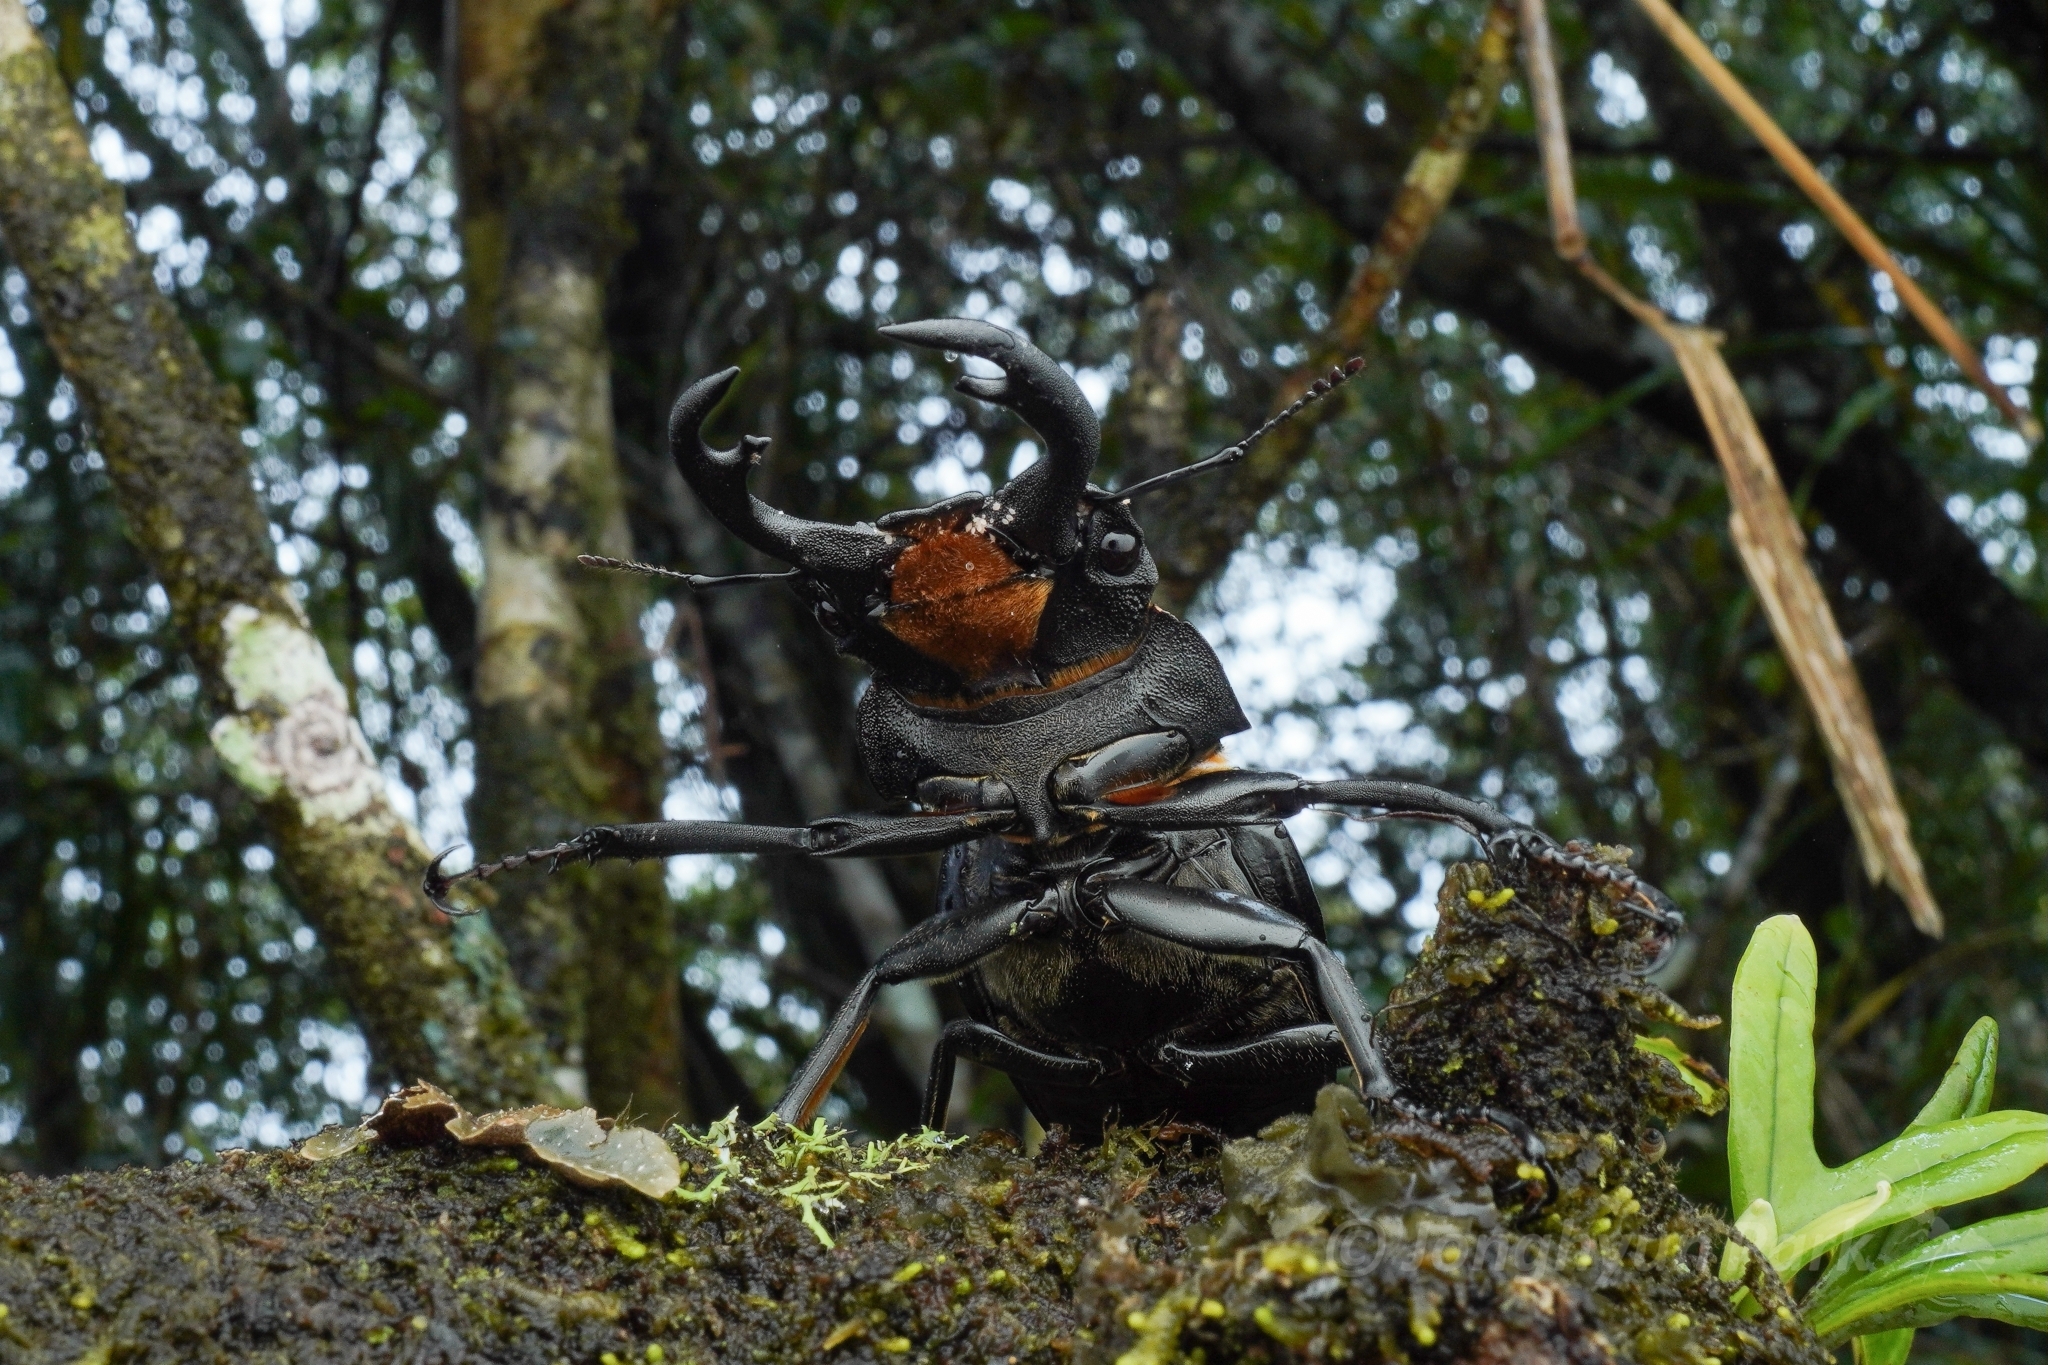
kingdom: Animalia
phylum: Arthropoda
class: Insecta
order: Coleoptera
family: Lucanidae
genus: Odontolabis
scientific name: Odontolabis cypri
